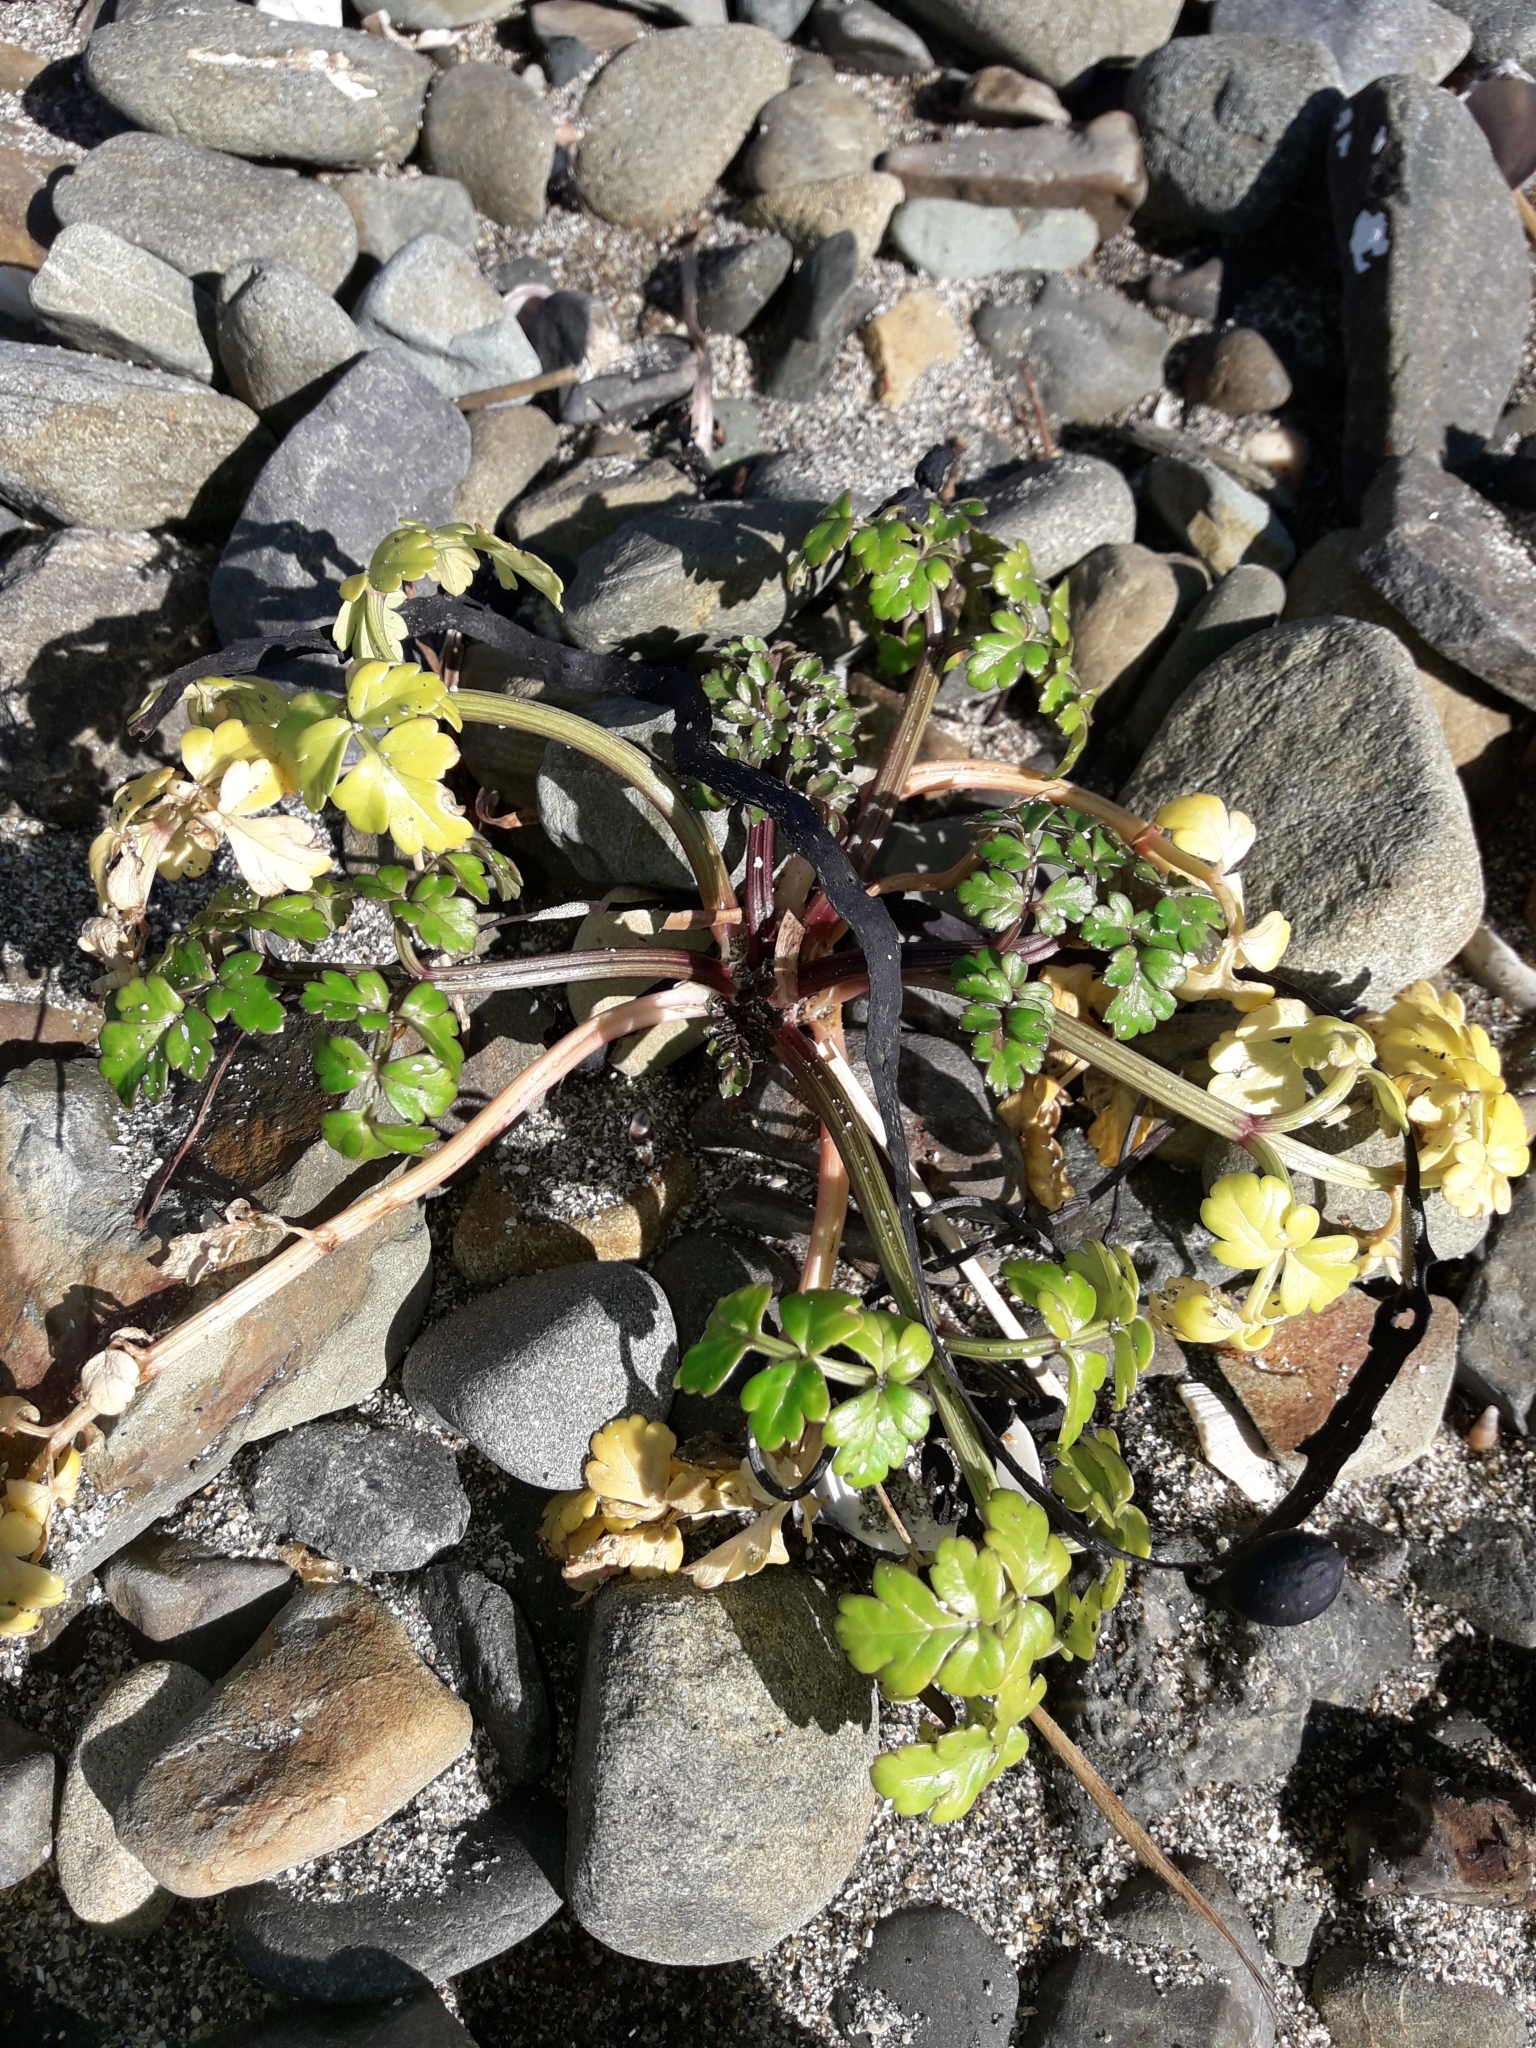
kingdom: Plantae
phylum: Tracheophyta
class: Magnoliopsida
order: Apiales
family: Apiaceae
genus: Apium
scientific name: Apium prostratum
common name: Prostrate marshwort
